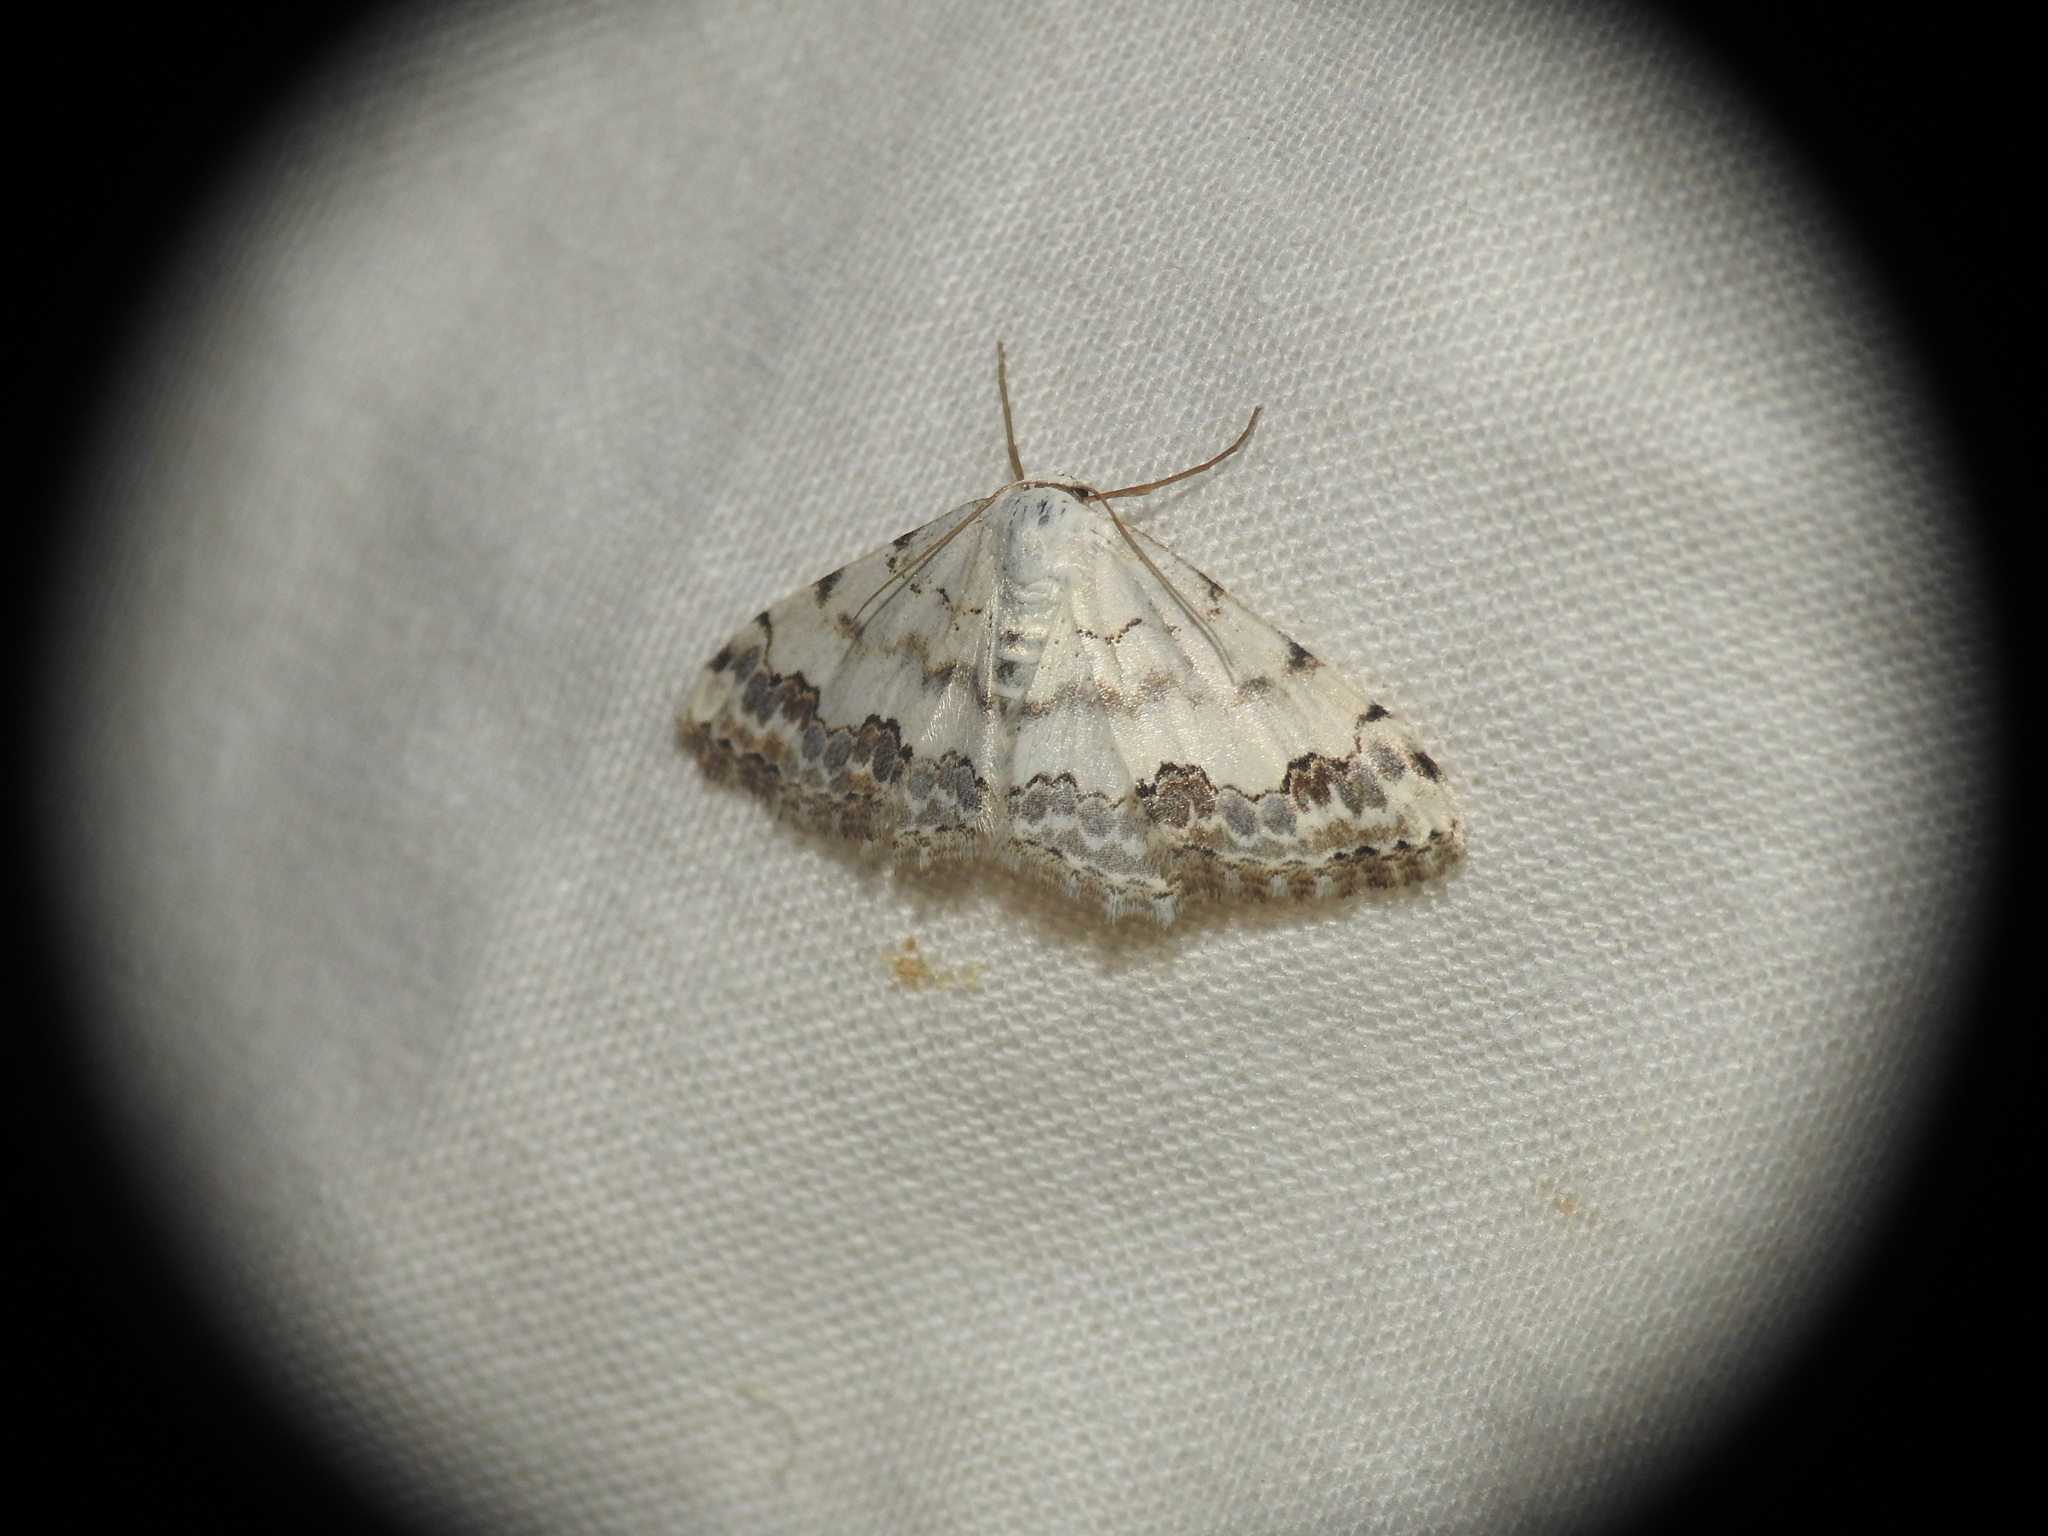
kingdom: Animalia
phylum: Arthropoda
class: Insecta
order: Lepidoptera
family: Geometridae
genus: Scopula
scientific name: Scopula decorata
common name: Middle lace border
